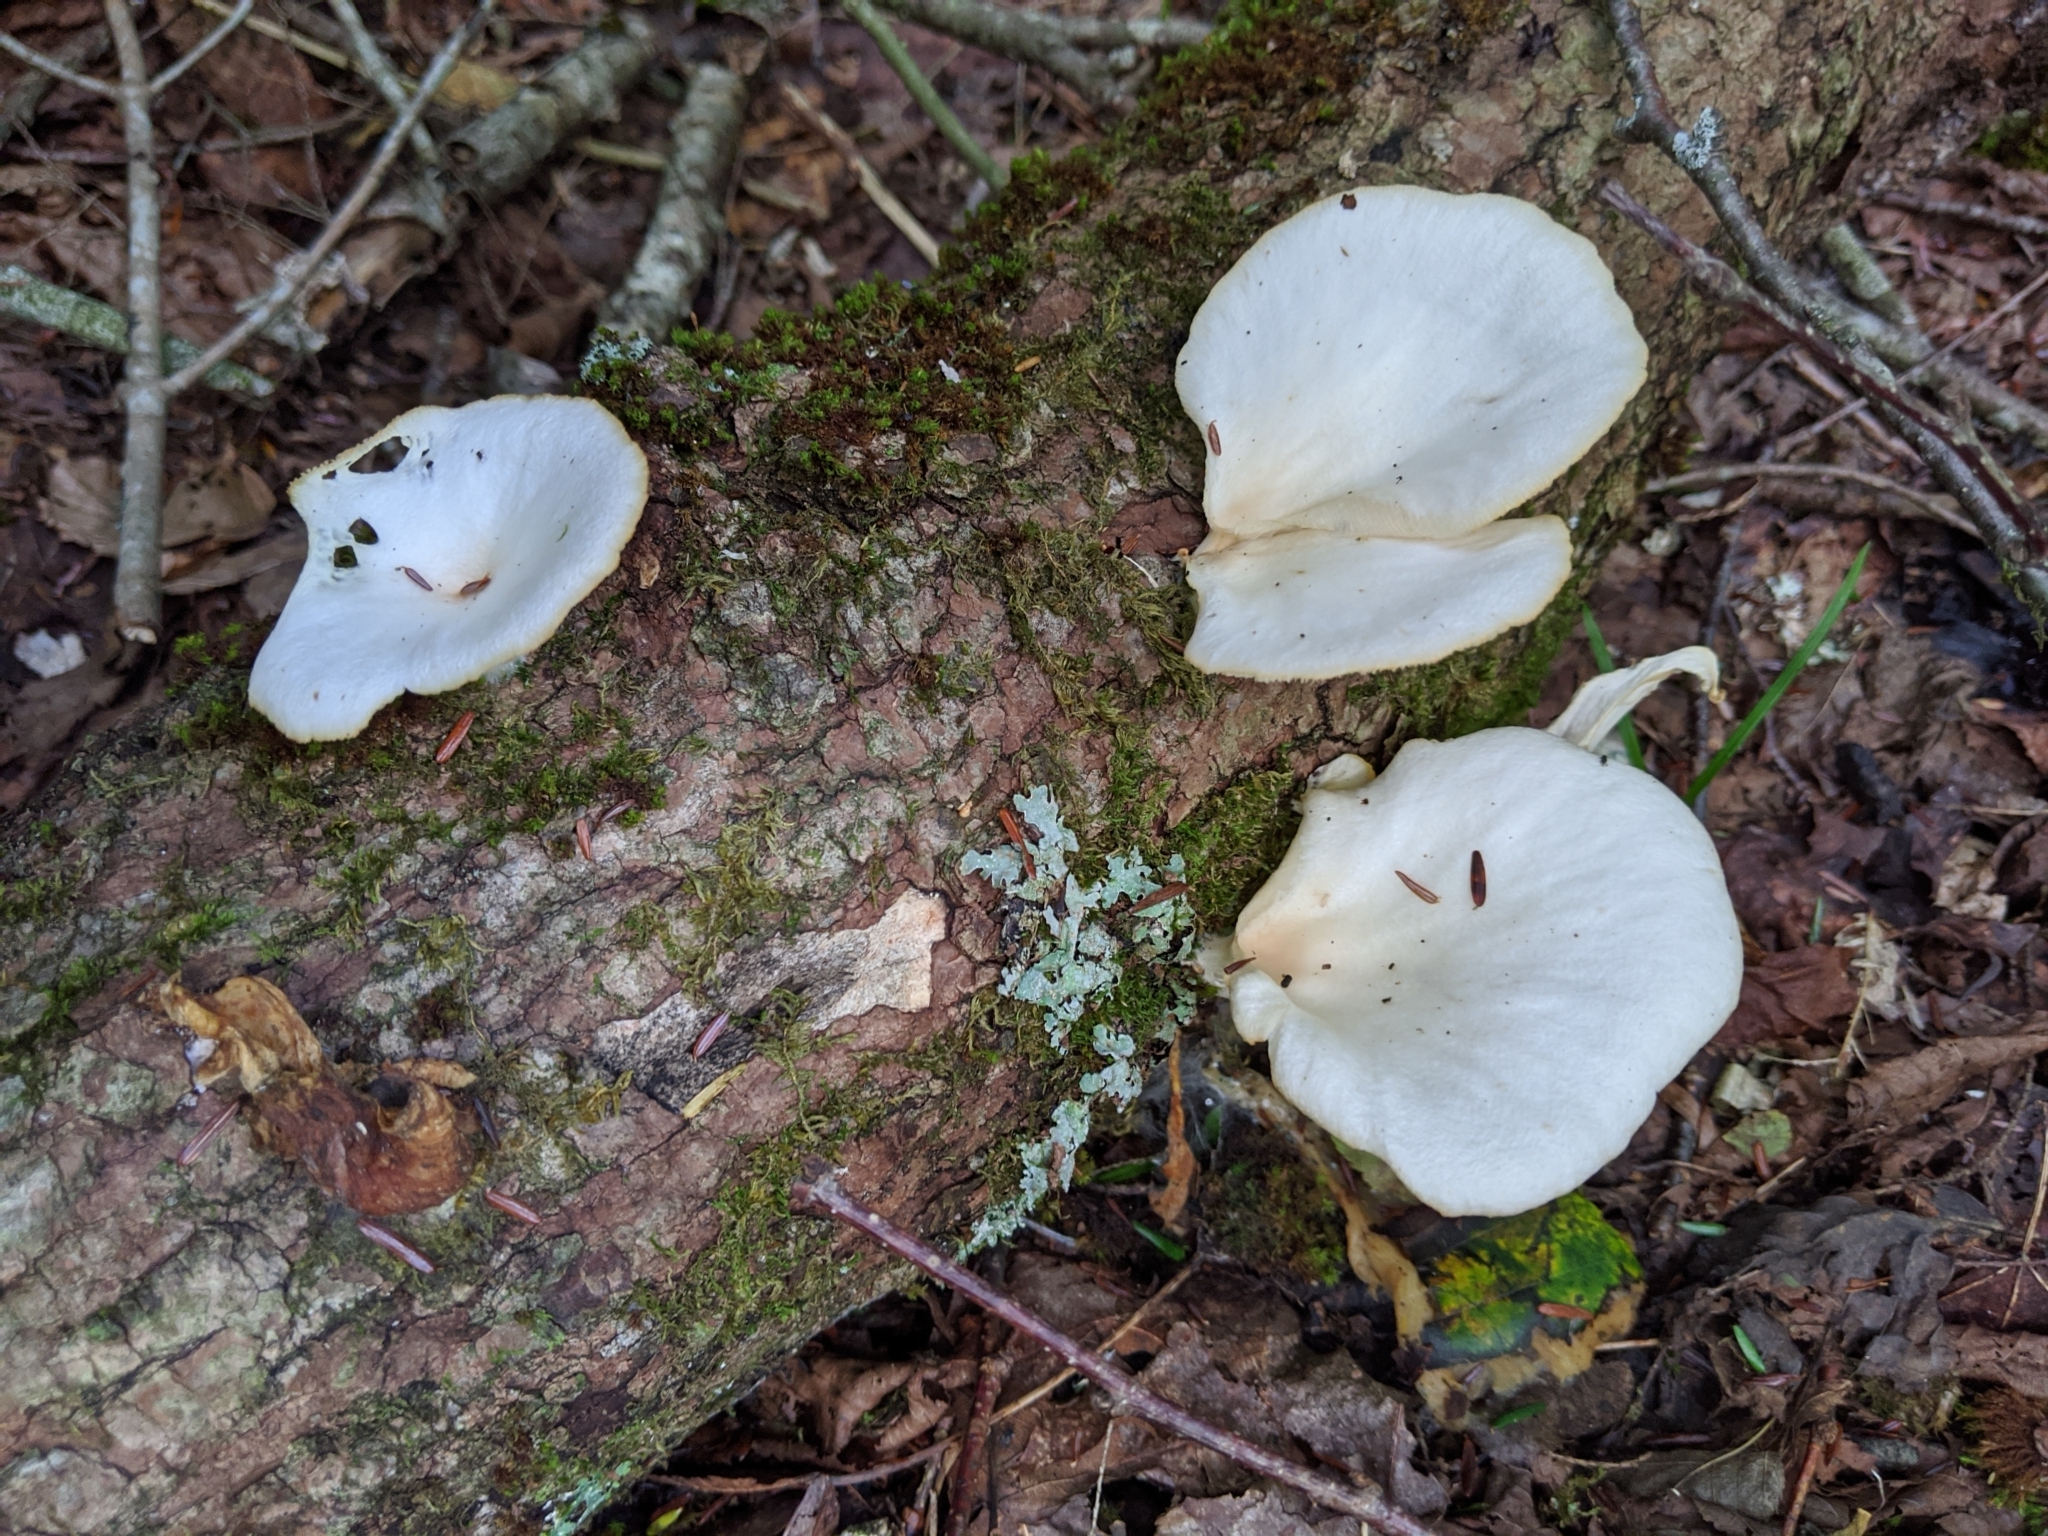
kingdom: Fungi
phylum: Basidiomycota
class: Agaricomycetes
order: Agaricales
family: Pleurotaceae
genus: Pleurotus
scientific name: Pleurotus pulmonarius
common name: Pale oyster
